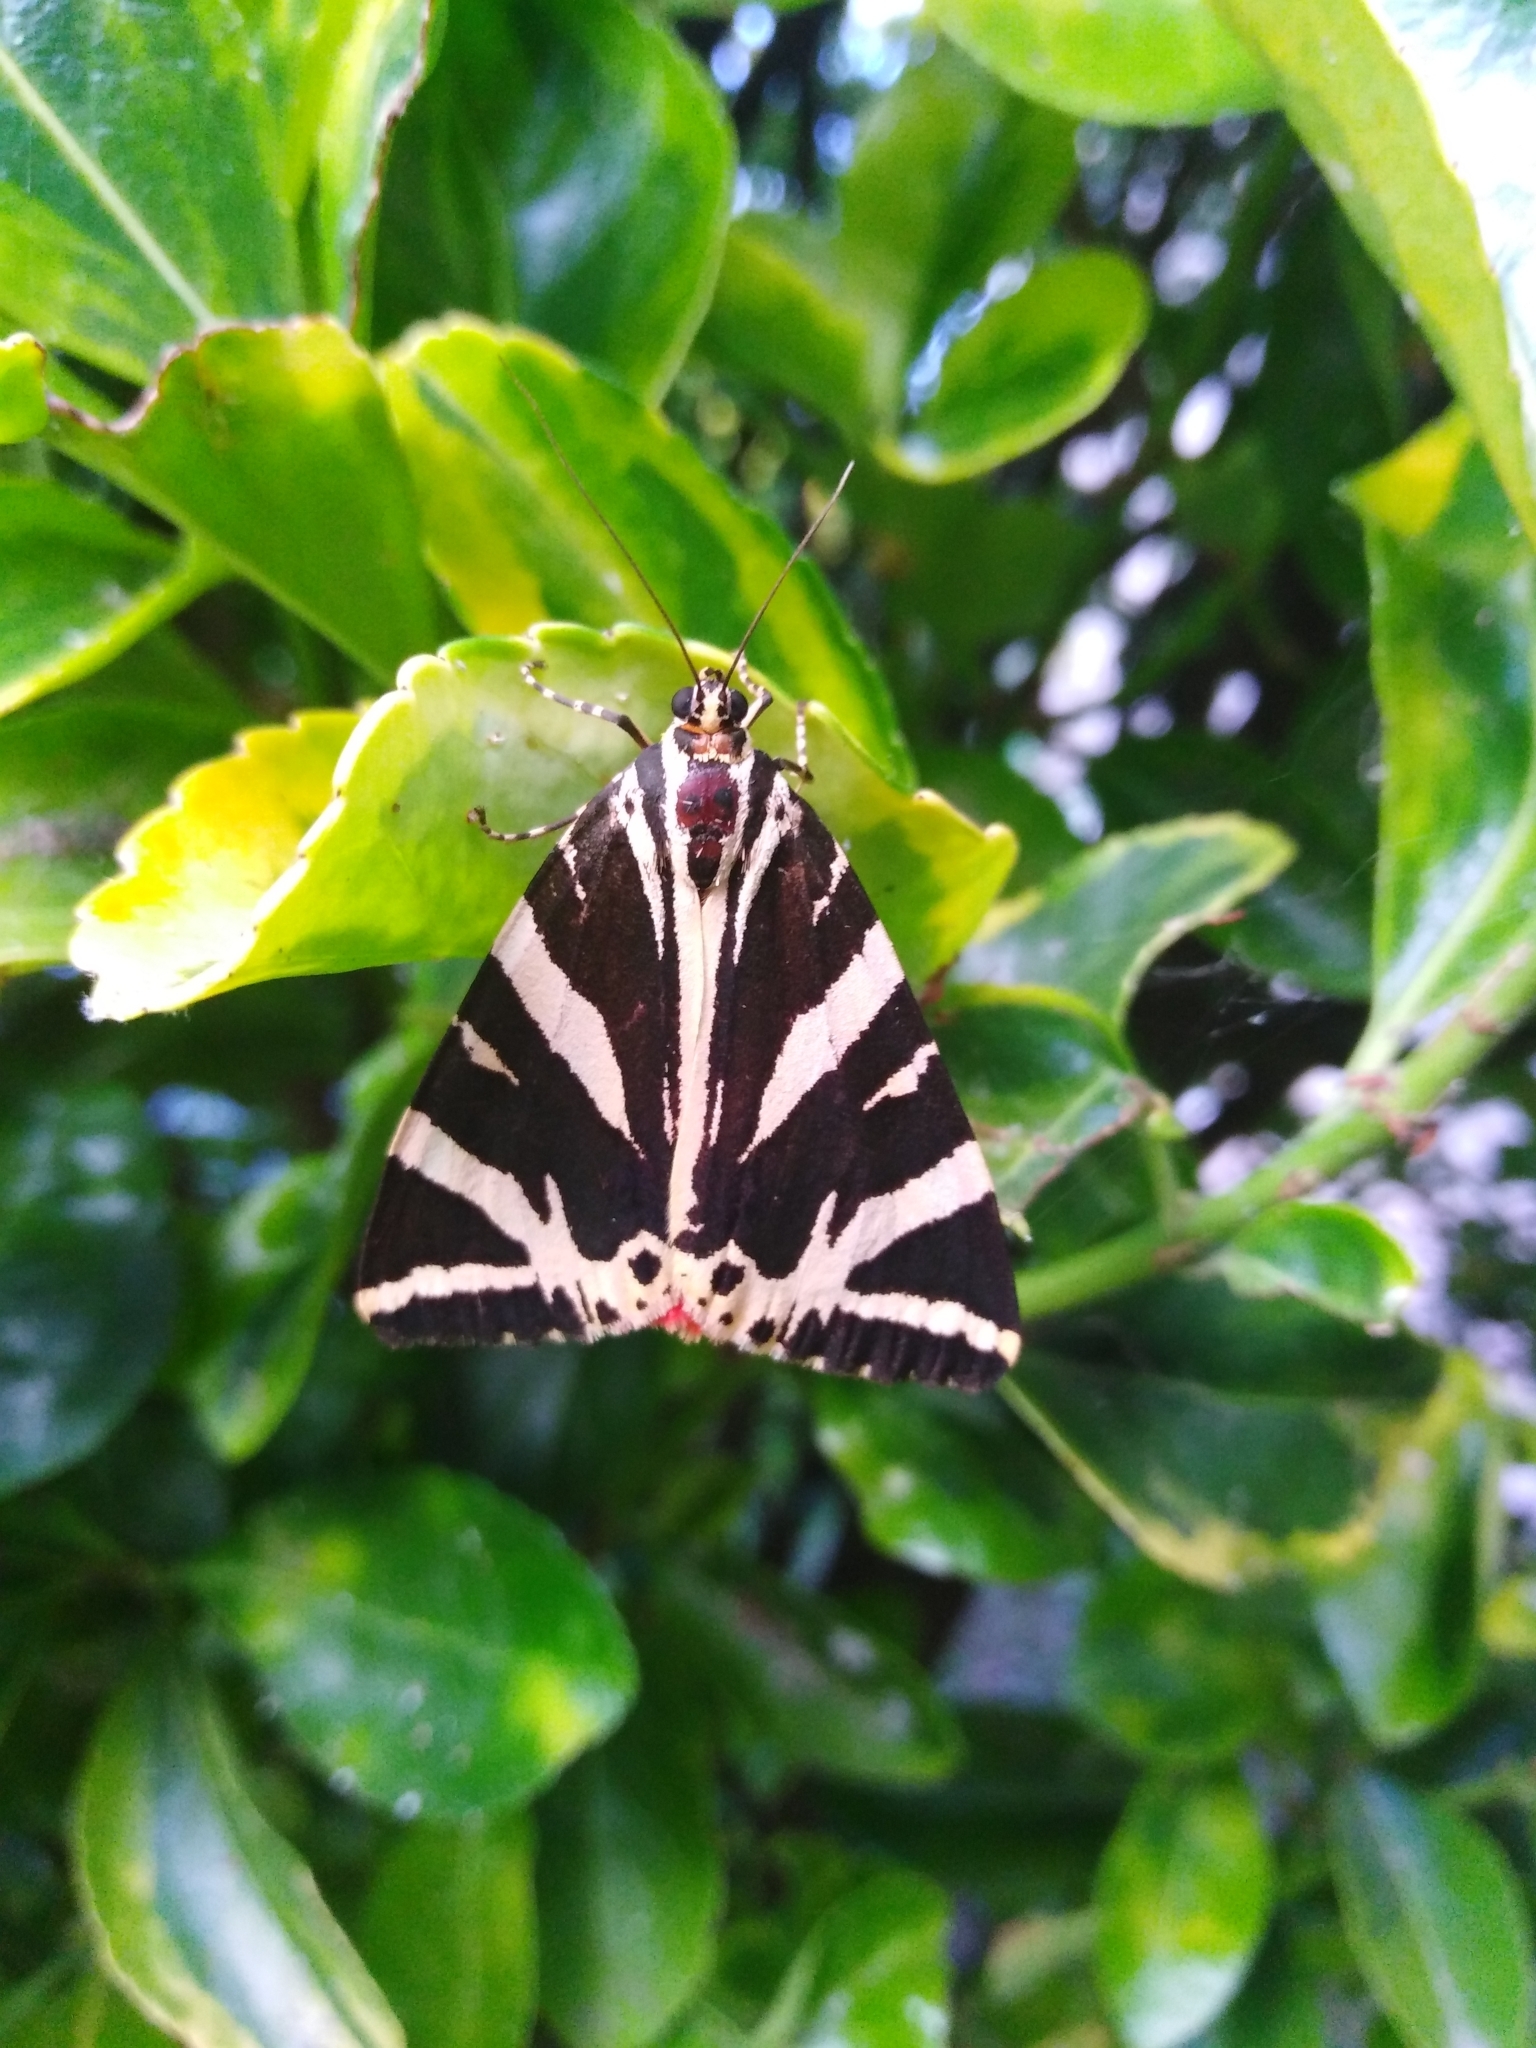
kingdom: Animalia
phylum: Arthropoda
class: Insecta
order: Lepidoptera
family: Erebidae
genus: Euplagia
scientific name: Euplagia quadripunctaria
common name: Jersey tiger
